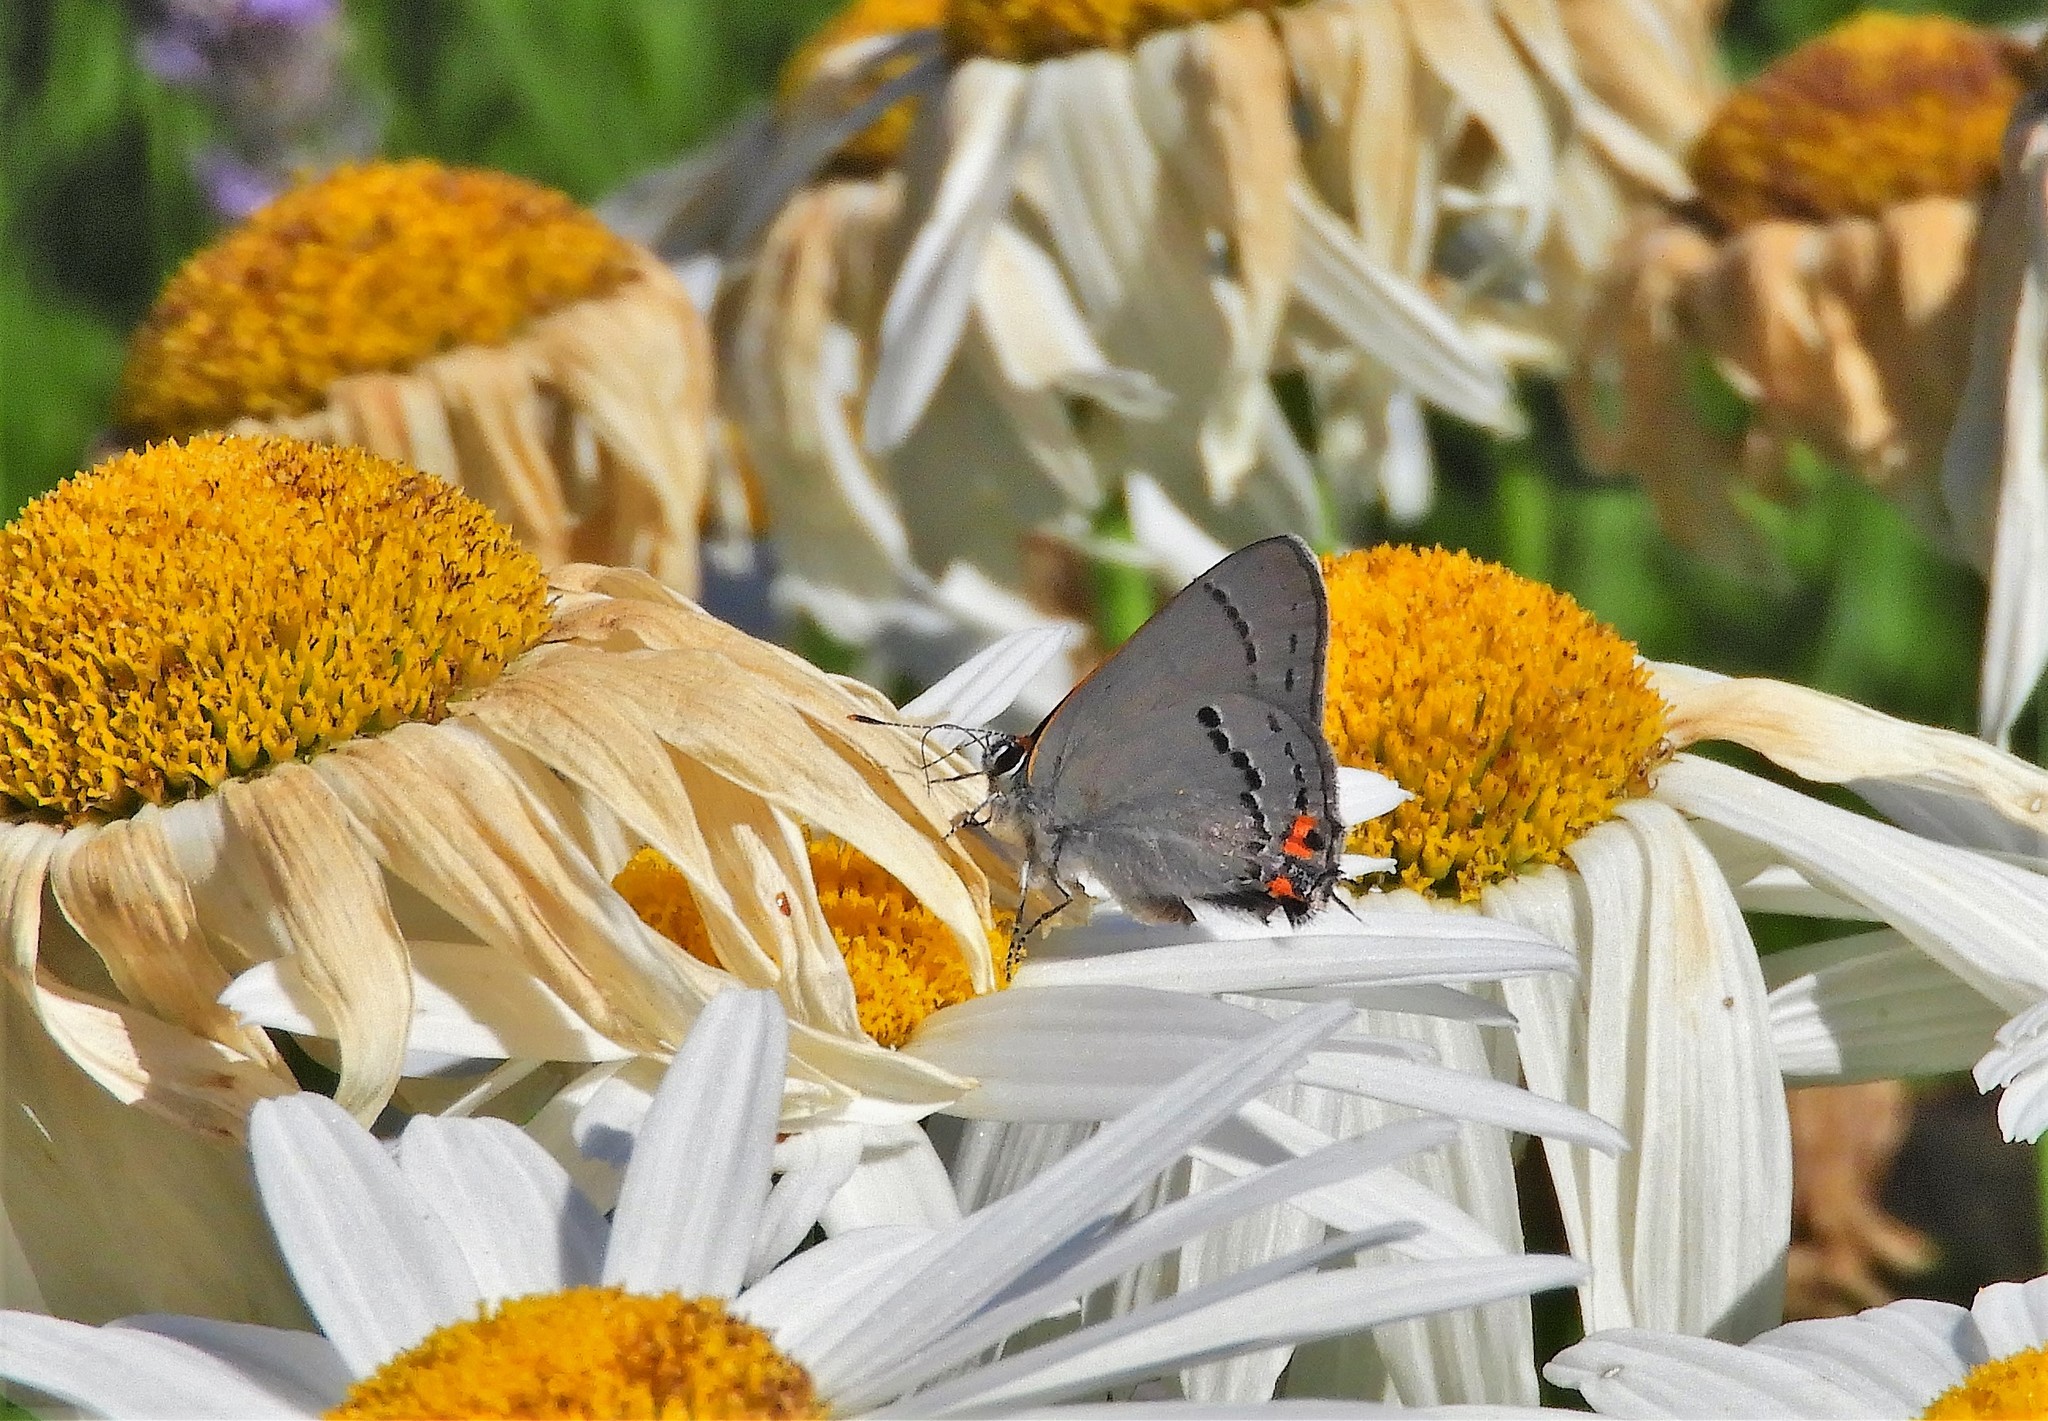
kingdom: Animalia
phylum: Arthropoda
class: Insecta
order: Lepidoptera
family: Lycaenidae
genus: Strymon
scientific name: Strymon melinus
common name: Gray hairstreak
